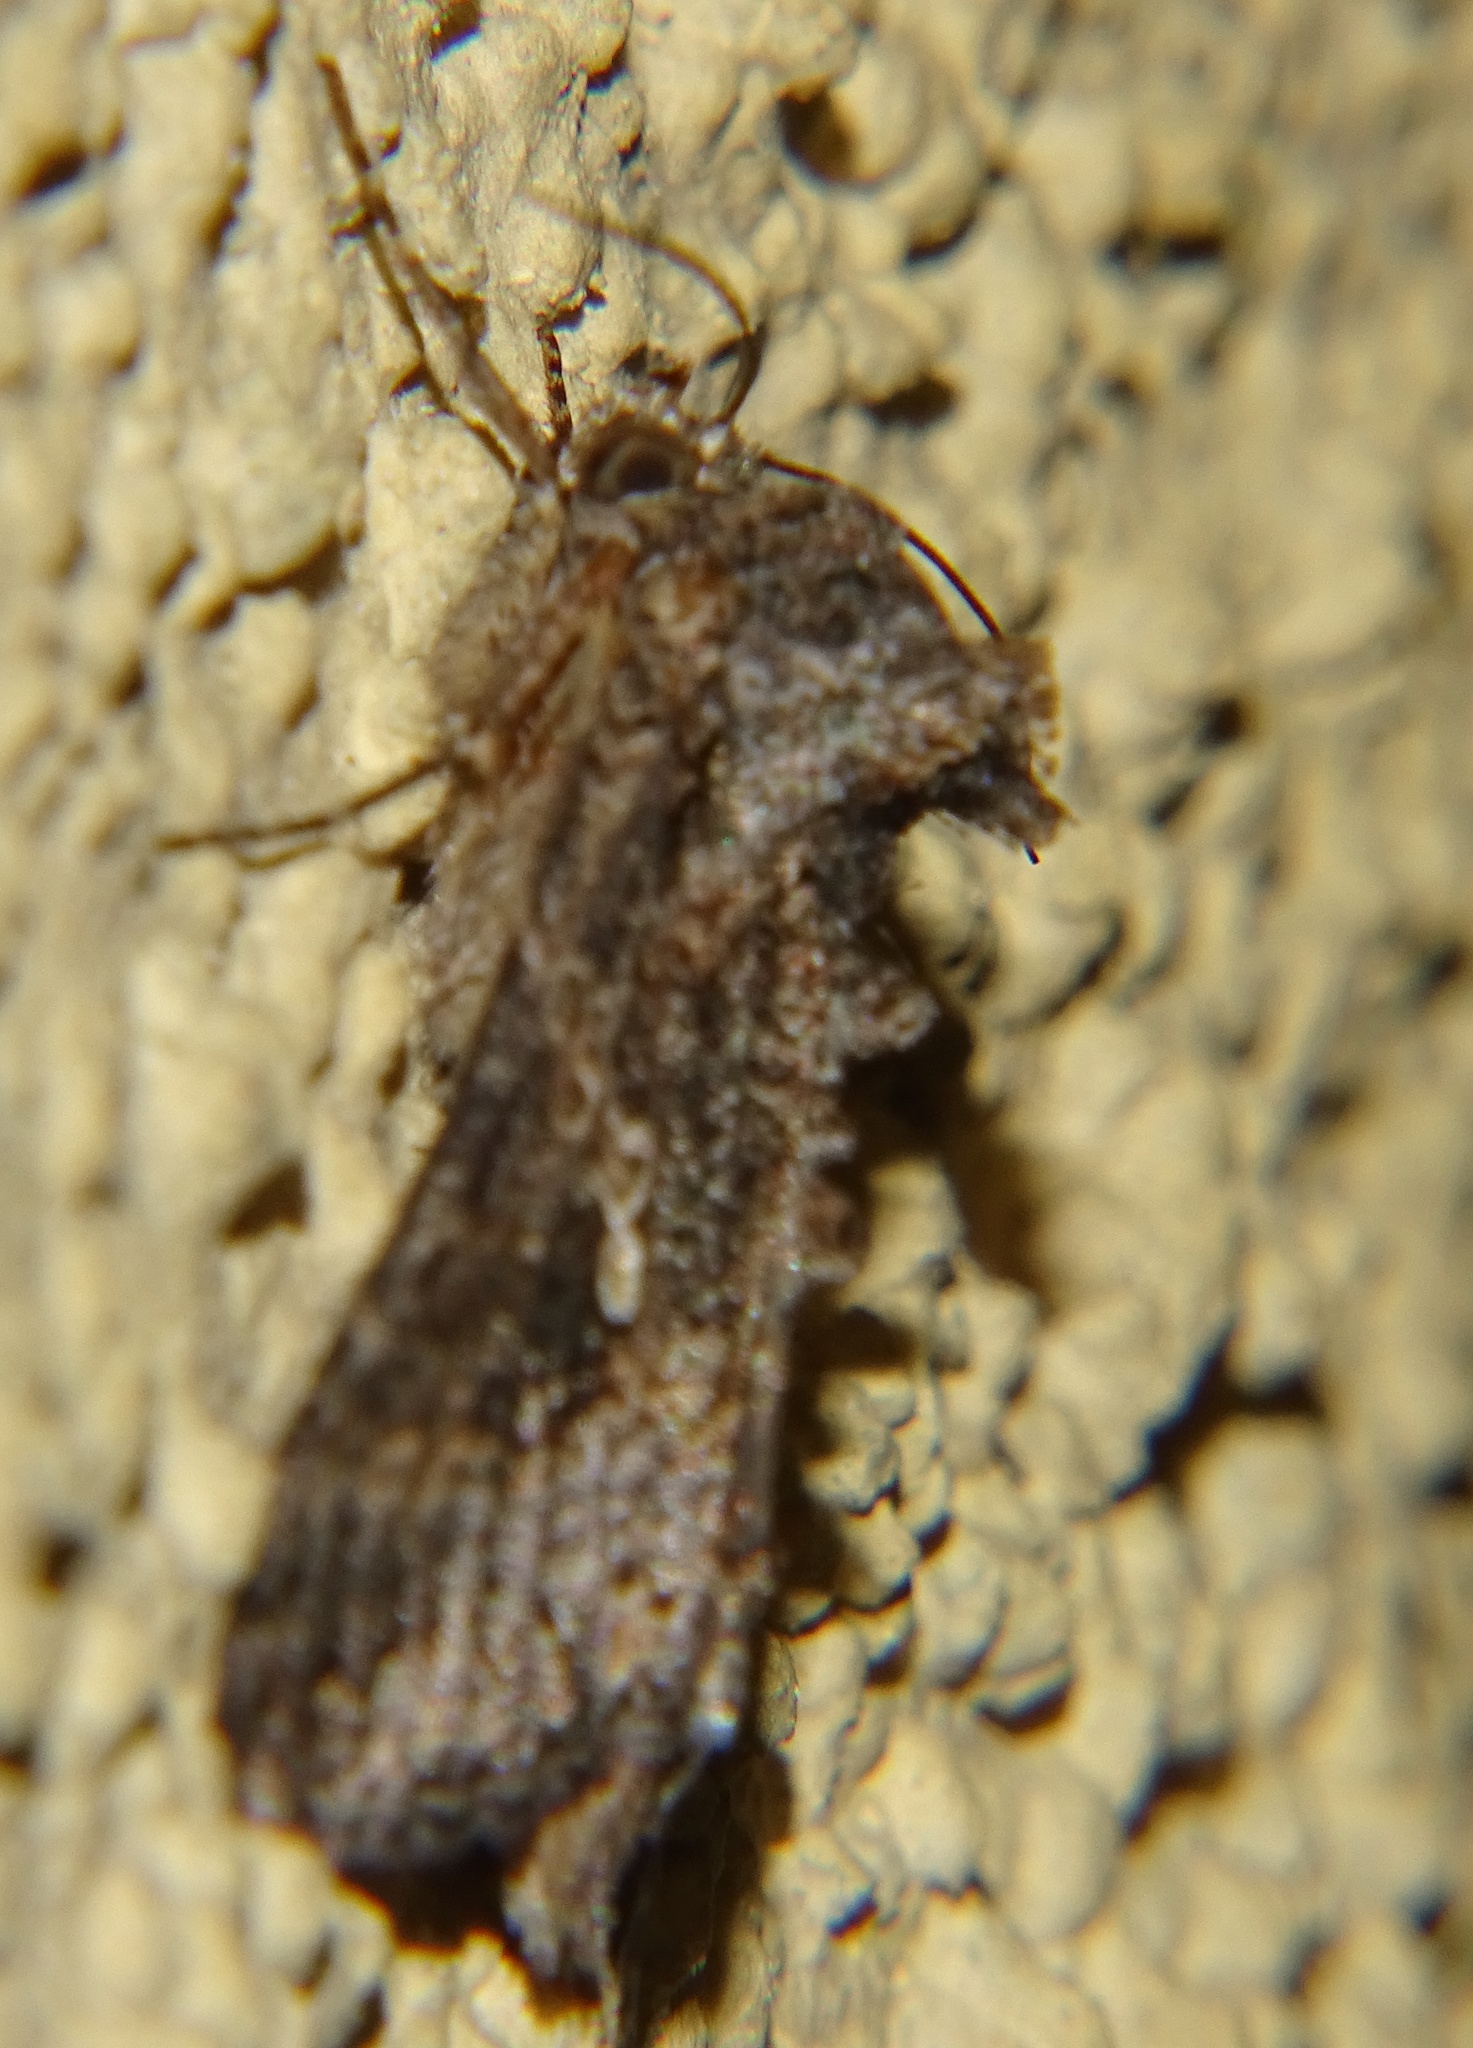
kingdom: Animalia
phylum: Arthropoda
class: Insecta
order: Lepidoptera
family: Noctuidae
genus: Trichoplusia
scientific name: Trichoplusia ni
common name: Ni moth
